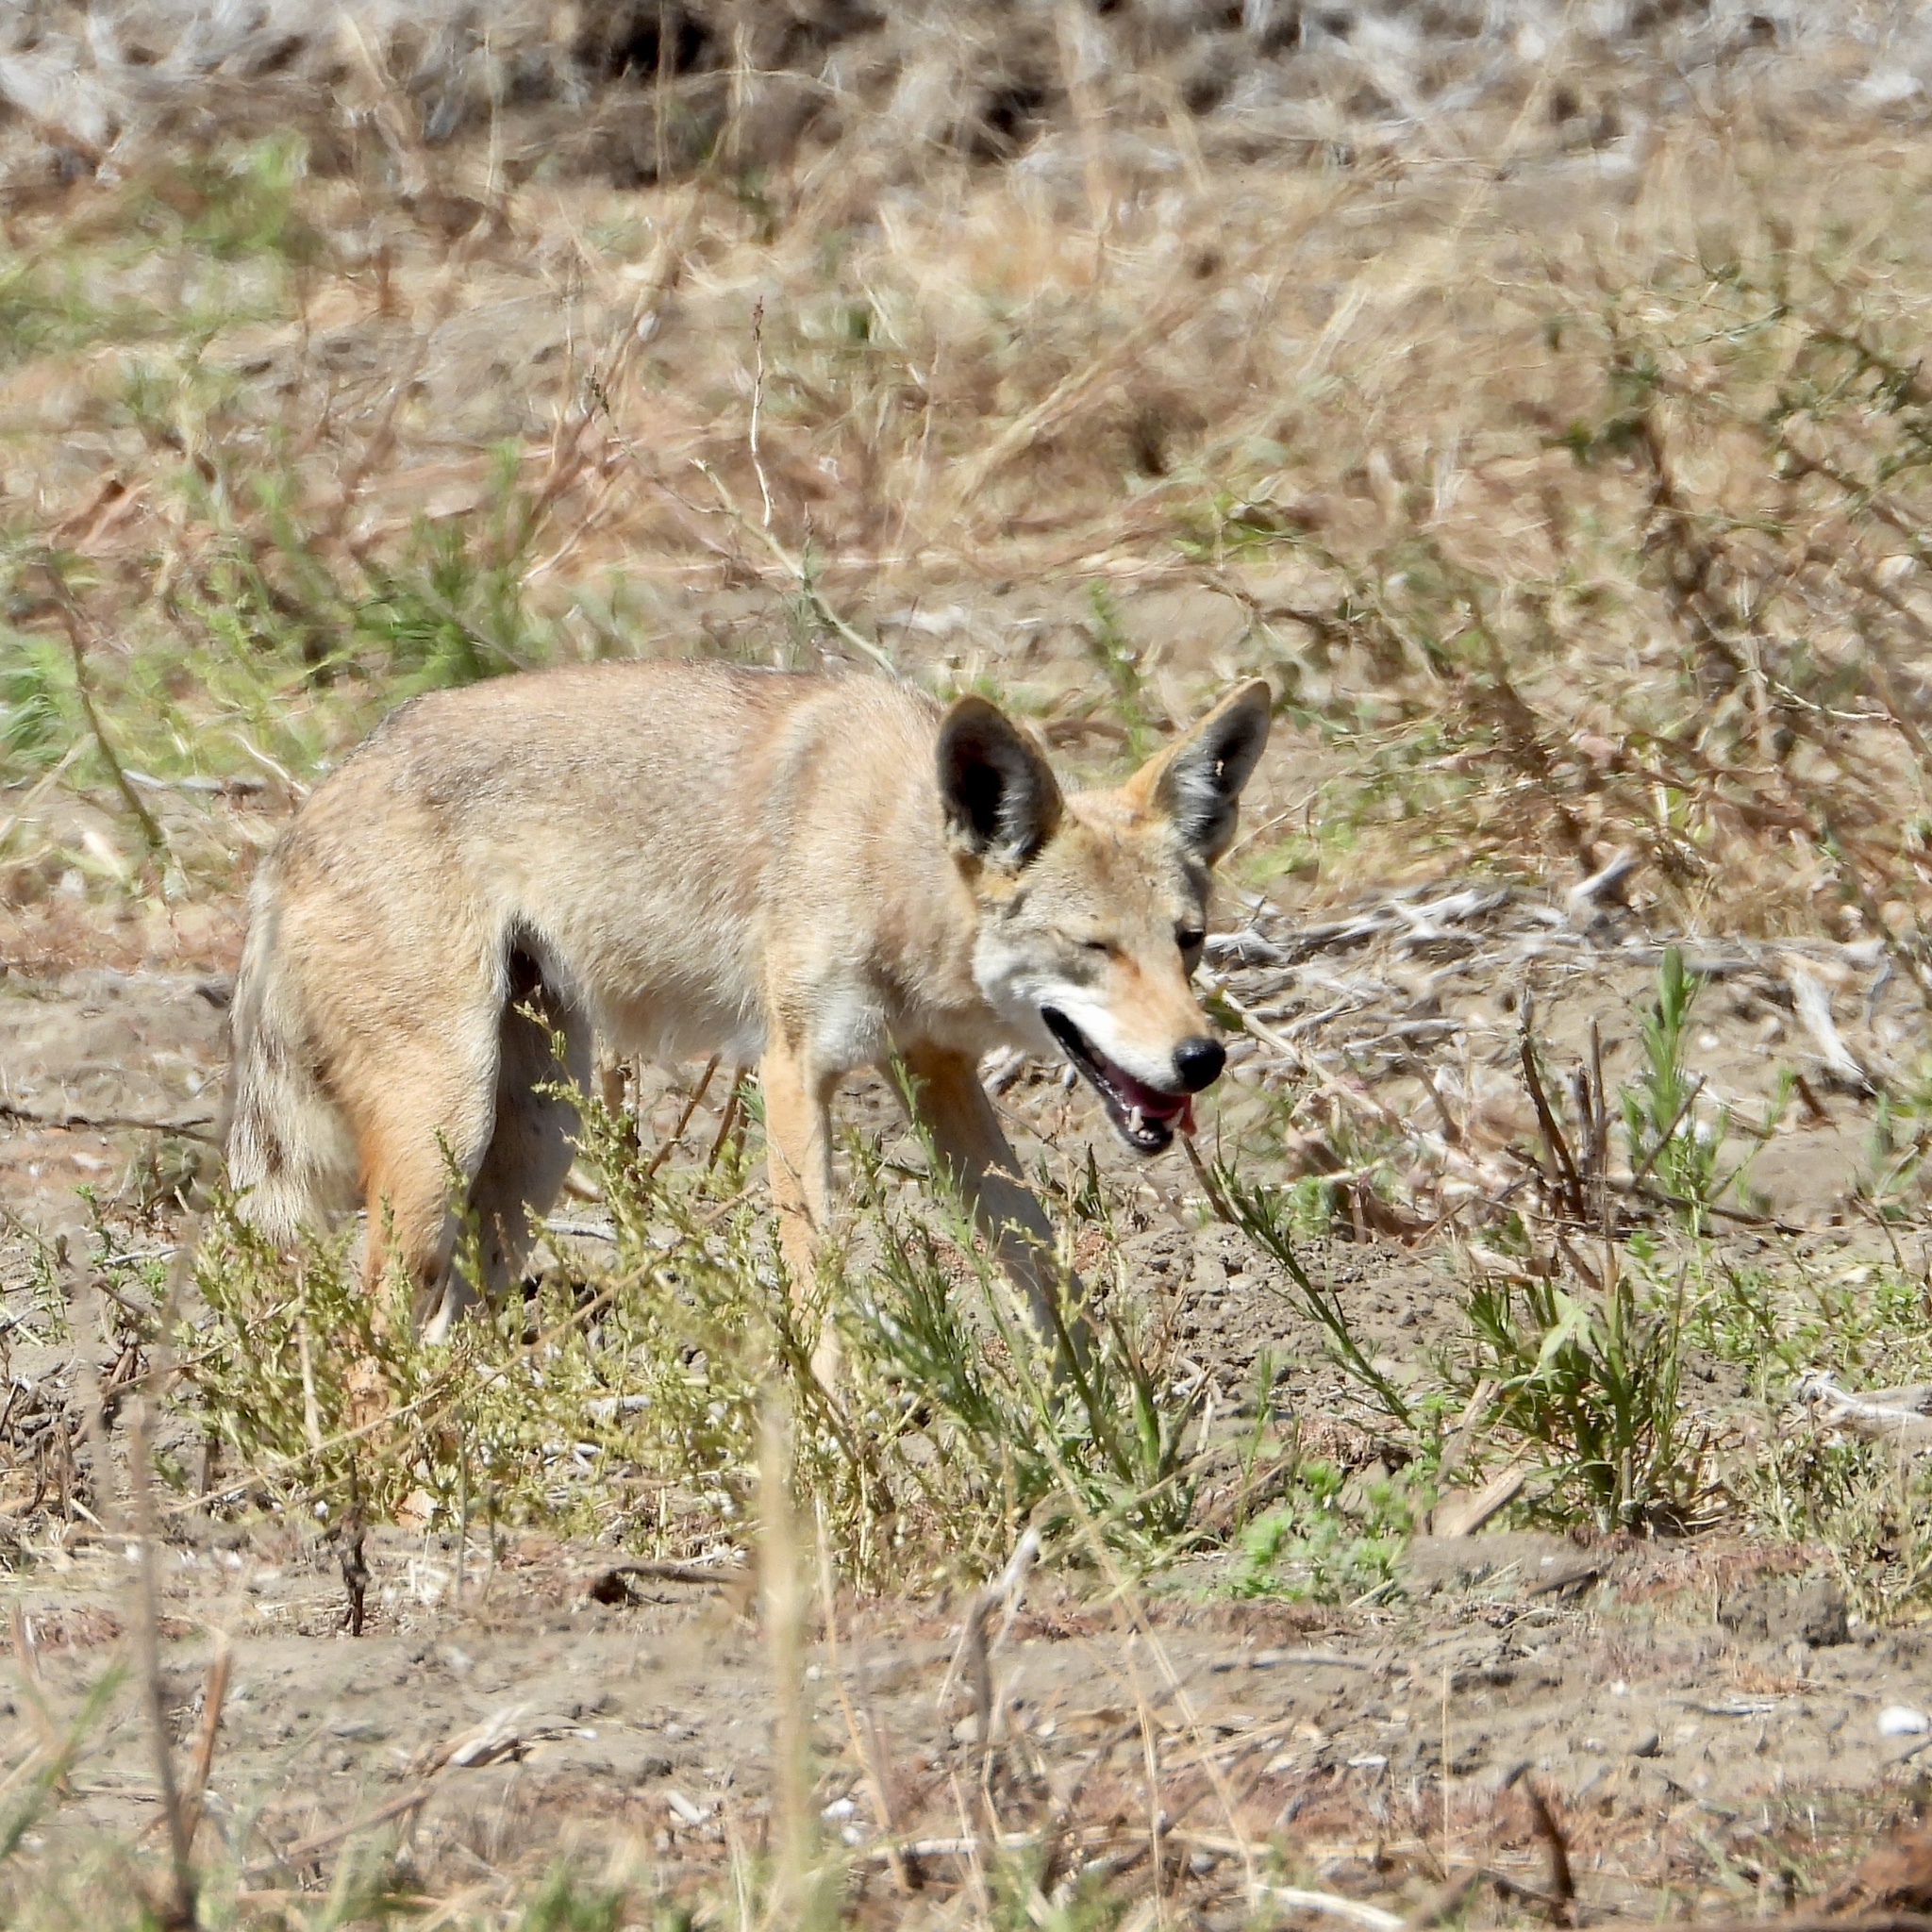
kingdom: Animalia
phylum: Chordata
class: Mammalia
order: Carnivora
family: Canidae
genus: Canis
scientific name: Canis latrans
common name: Coyote
